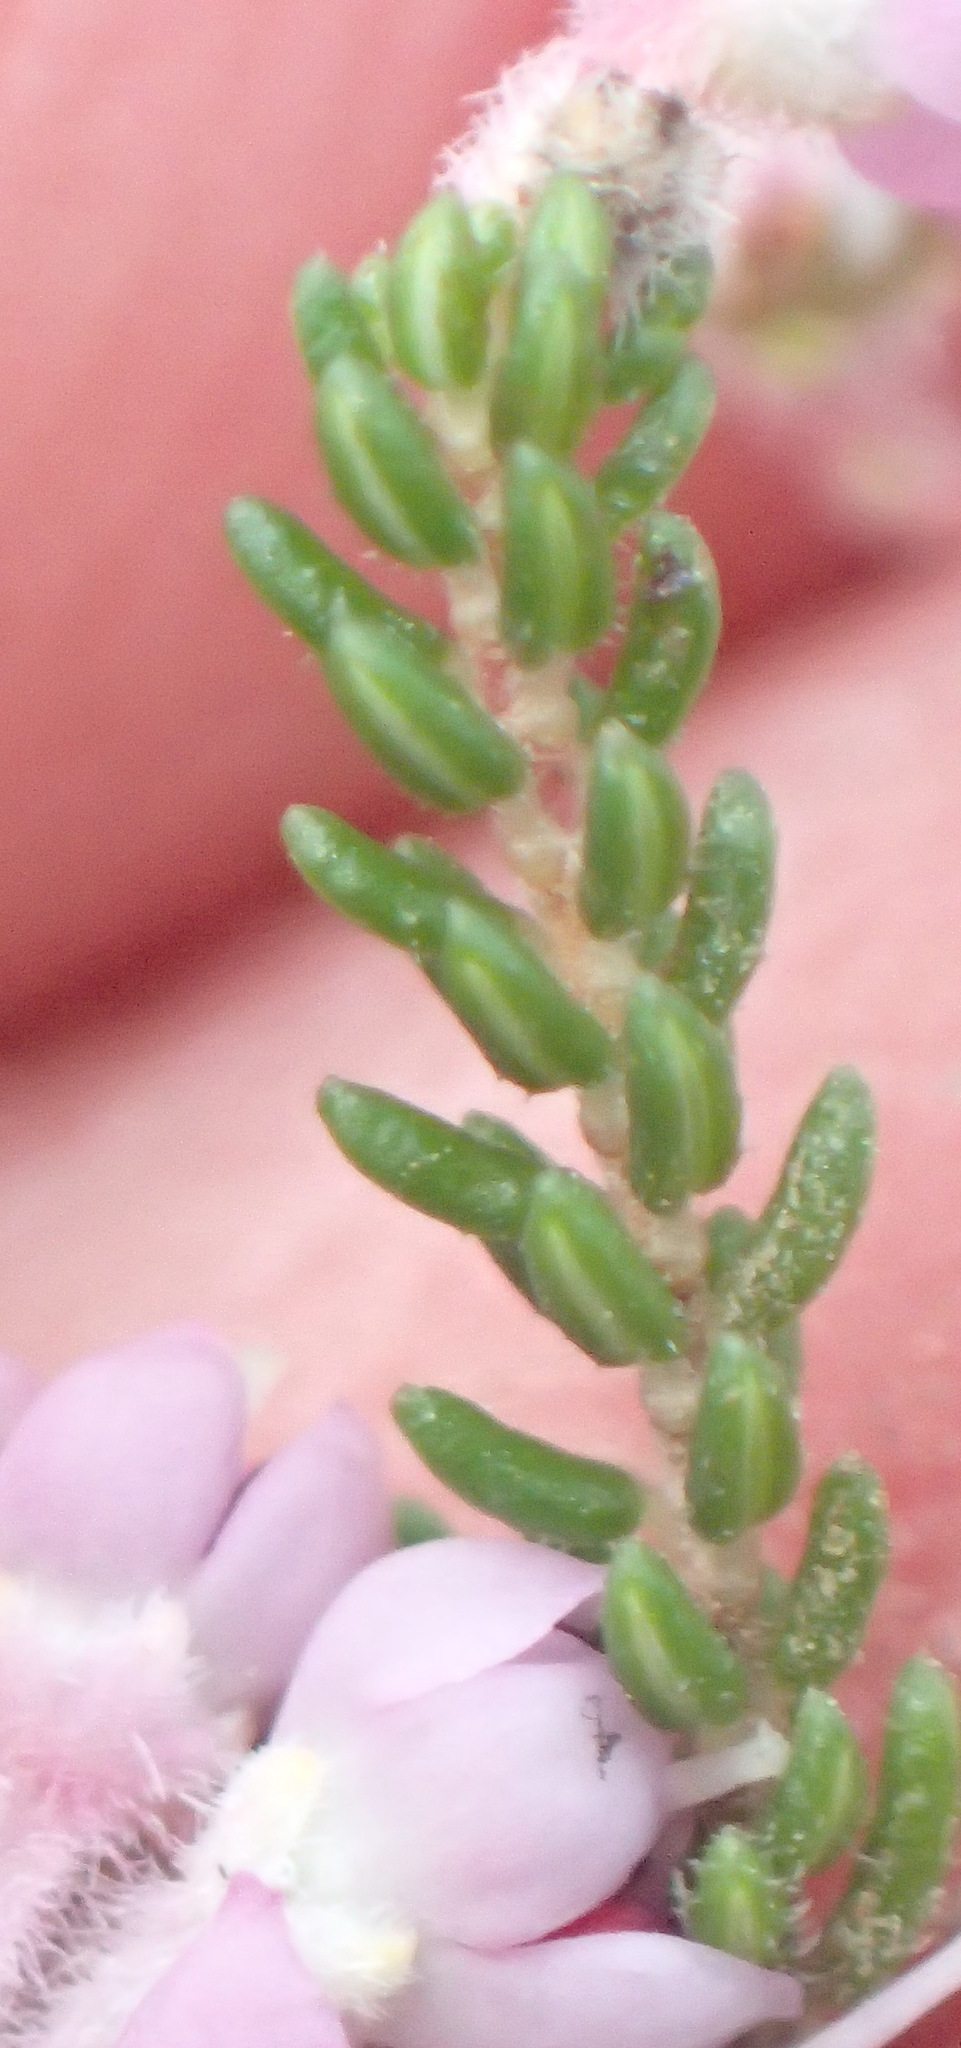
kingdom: Plantae
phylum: Tracheophyta
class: Magnoliopsida
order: Ericales
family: Ericaceae
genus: Erica
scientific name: Erica canaliculata
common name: Hairy grey heather
